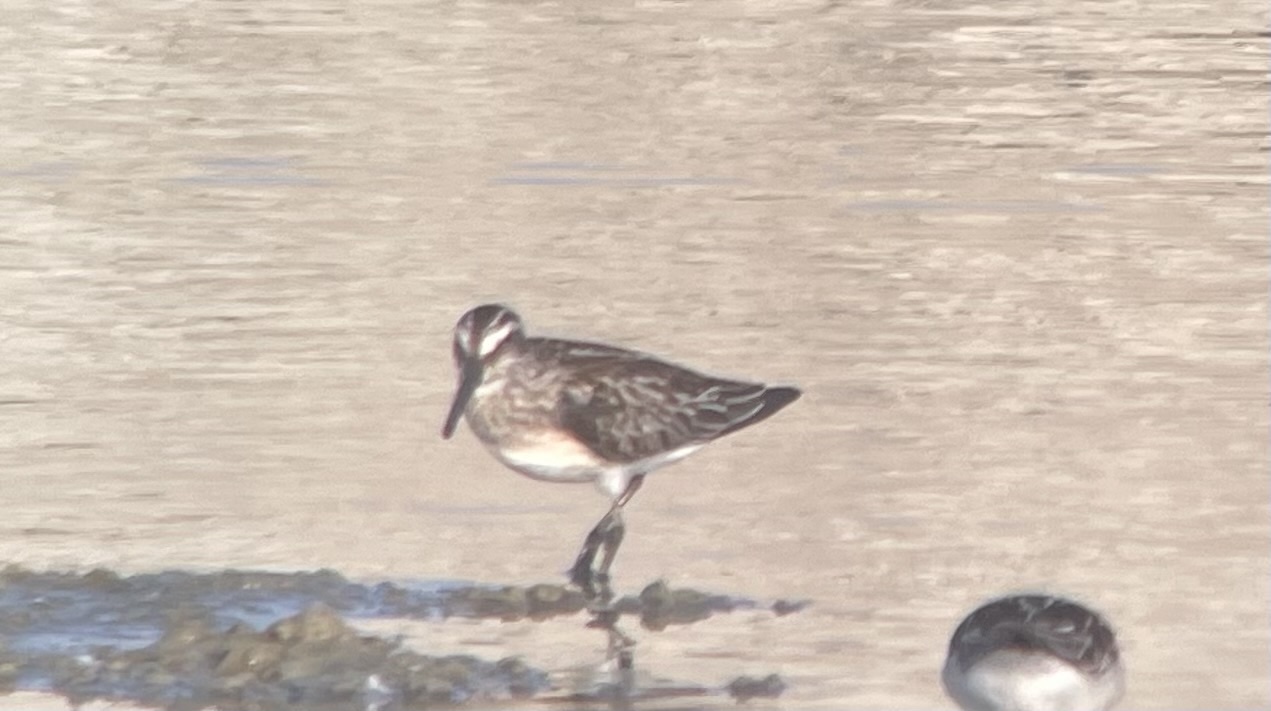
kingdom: Animalia
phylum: Chordata
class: Aves
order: Charadriiformes
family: Scolopacidae
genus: Calidris
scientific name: Calidris falcinellus
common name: Broad-billed sandpiper
